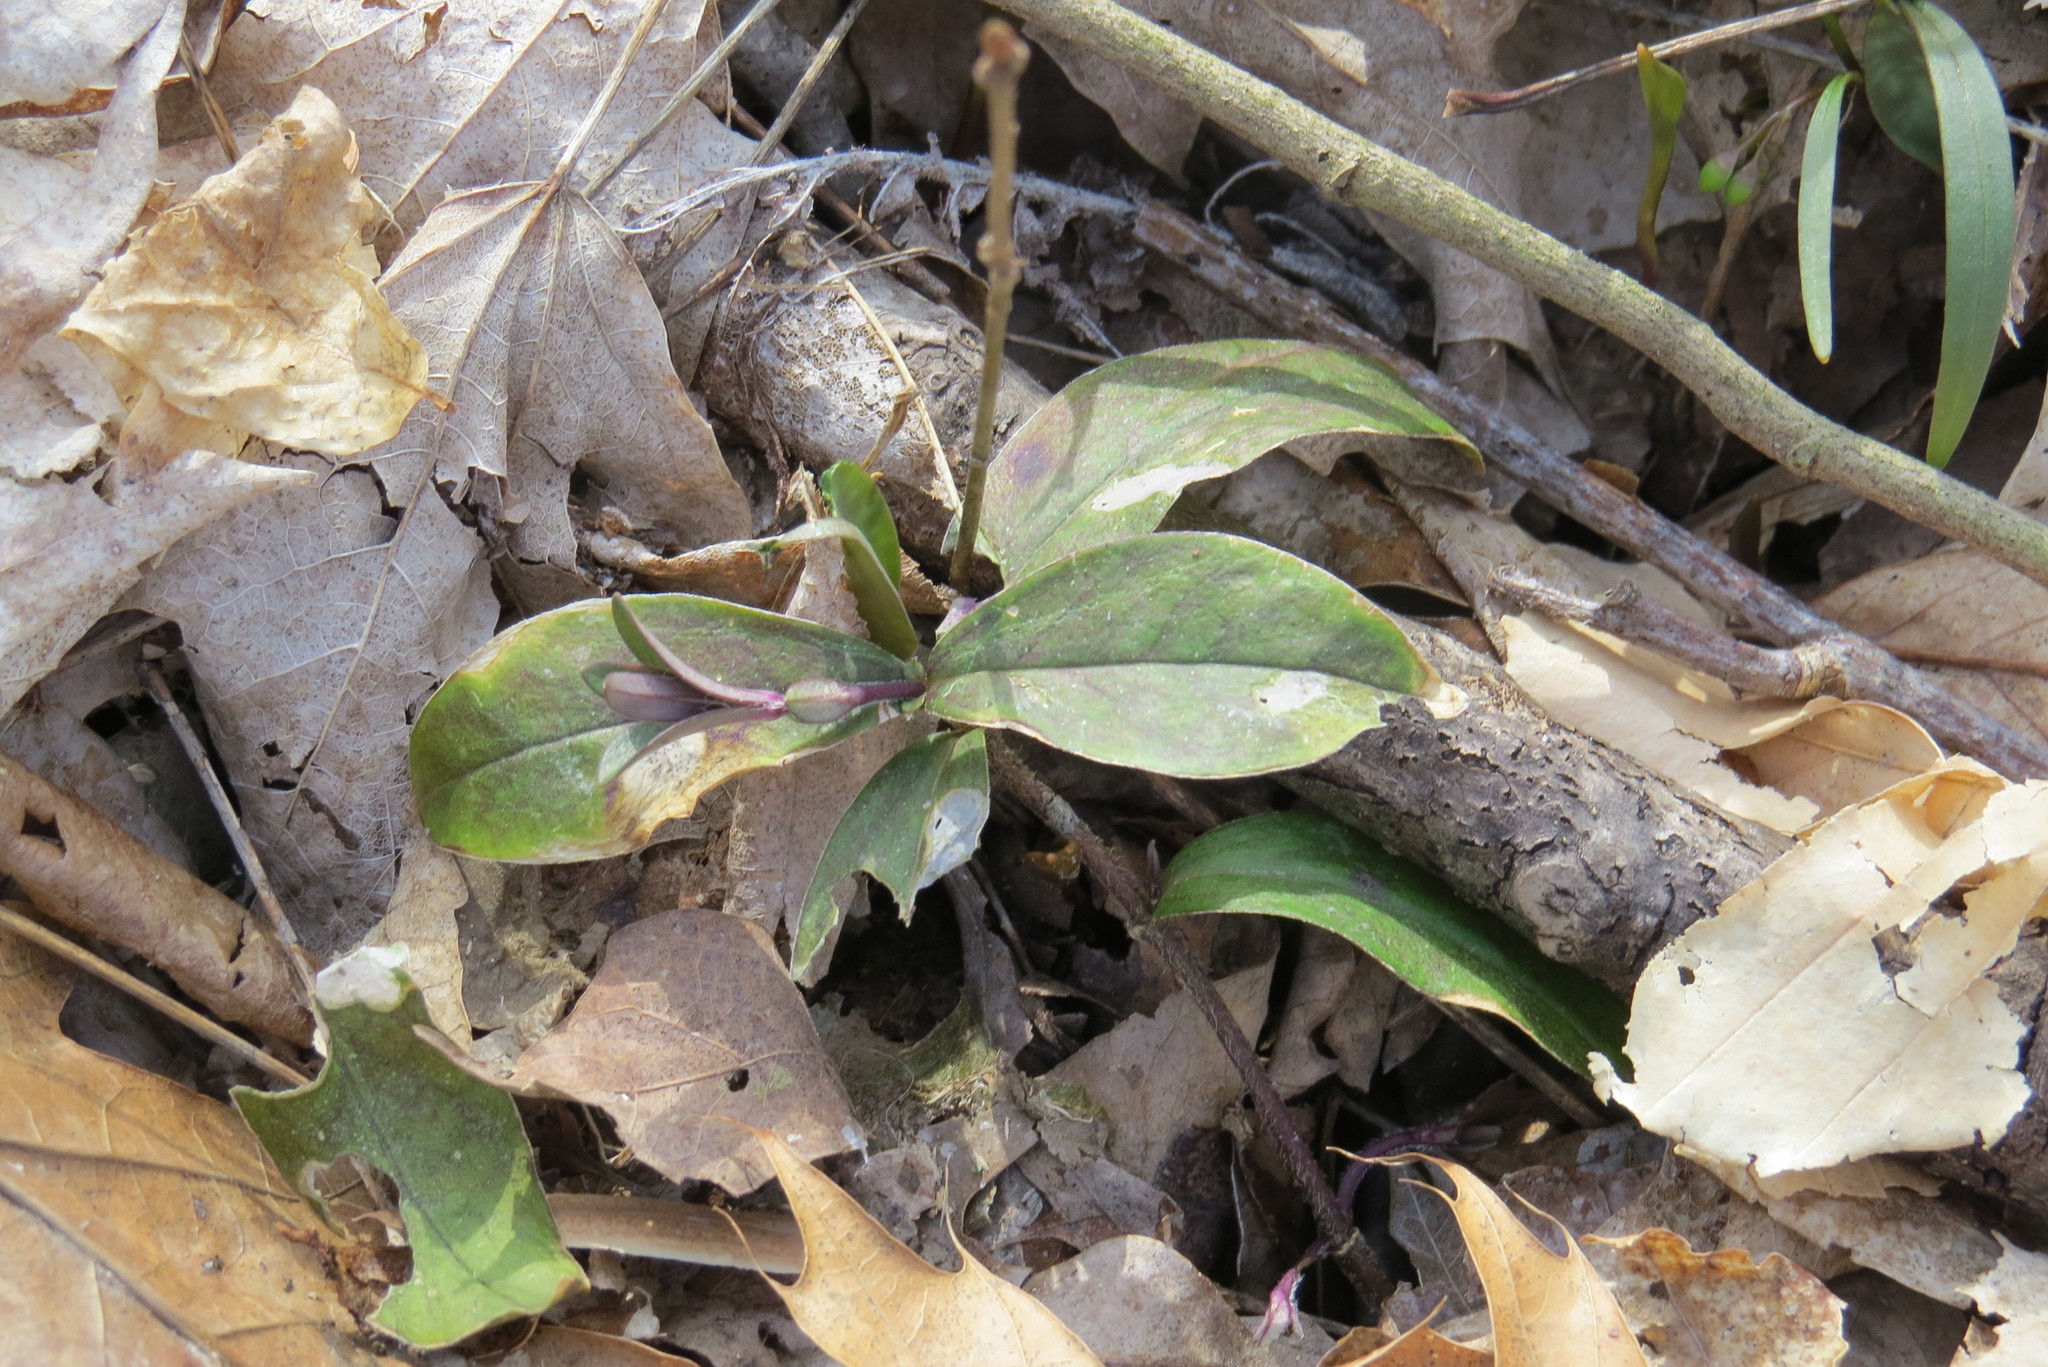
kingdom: Plantae
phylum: Tracheophyta
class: Magnoliopsida
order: Ericales
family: Polemoniaceae
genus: Phlox
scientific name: Phlox divaricata
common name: Blue phlox
